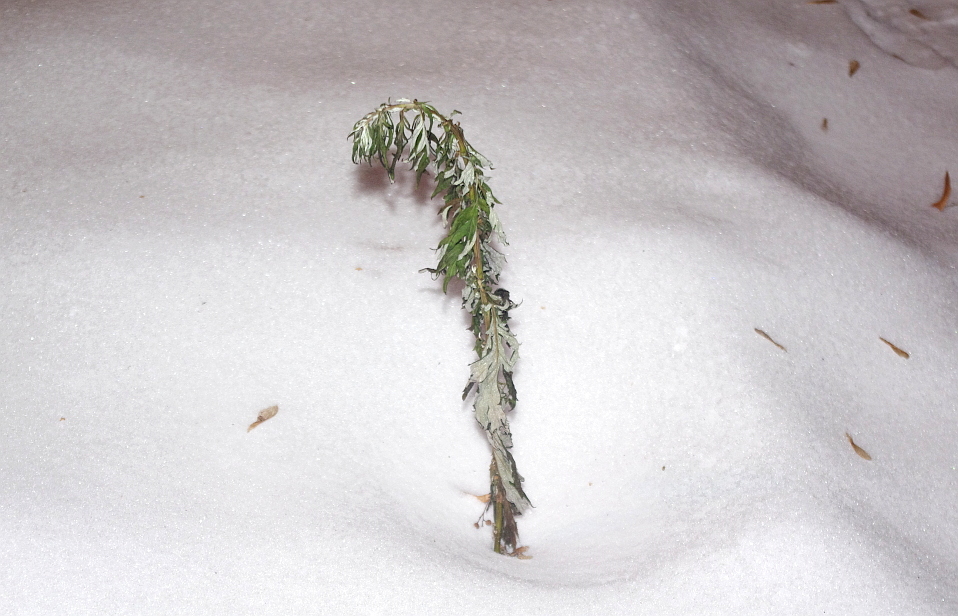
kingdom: Plantae
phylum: Tracheophyta
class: Magnoliopsida
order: Asterales
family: Asteraceae
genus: Artemisia
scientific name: Artemisia vulgaris
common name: Mugwort
